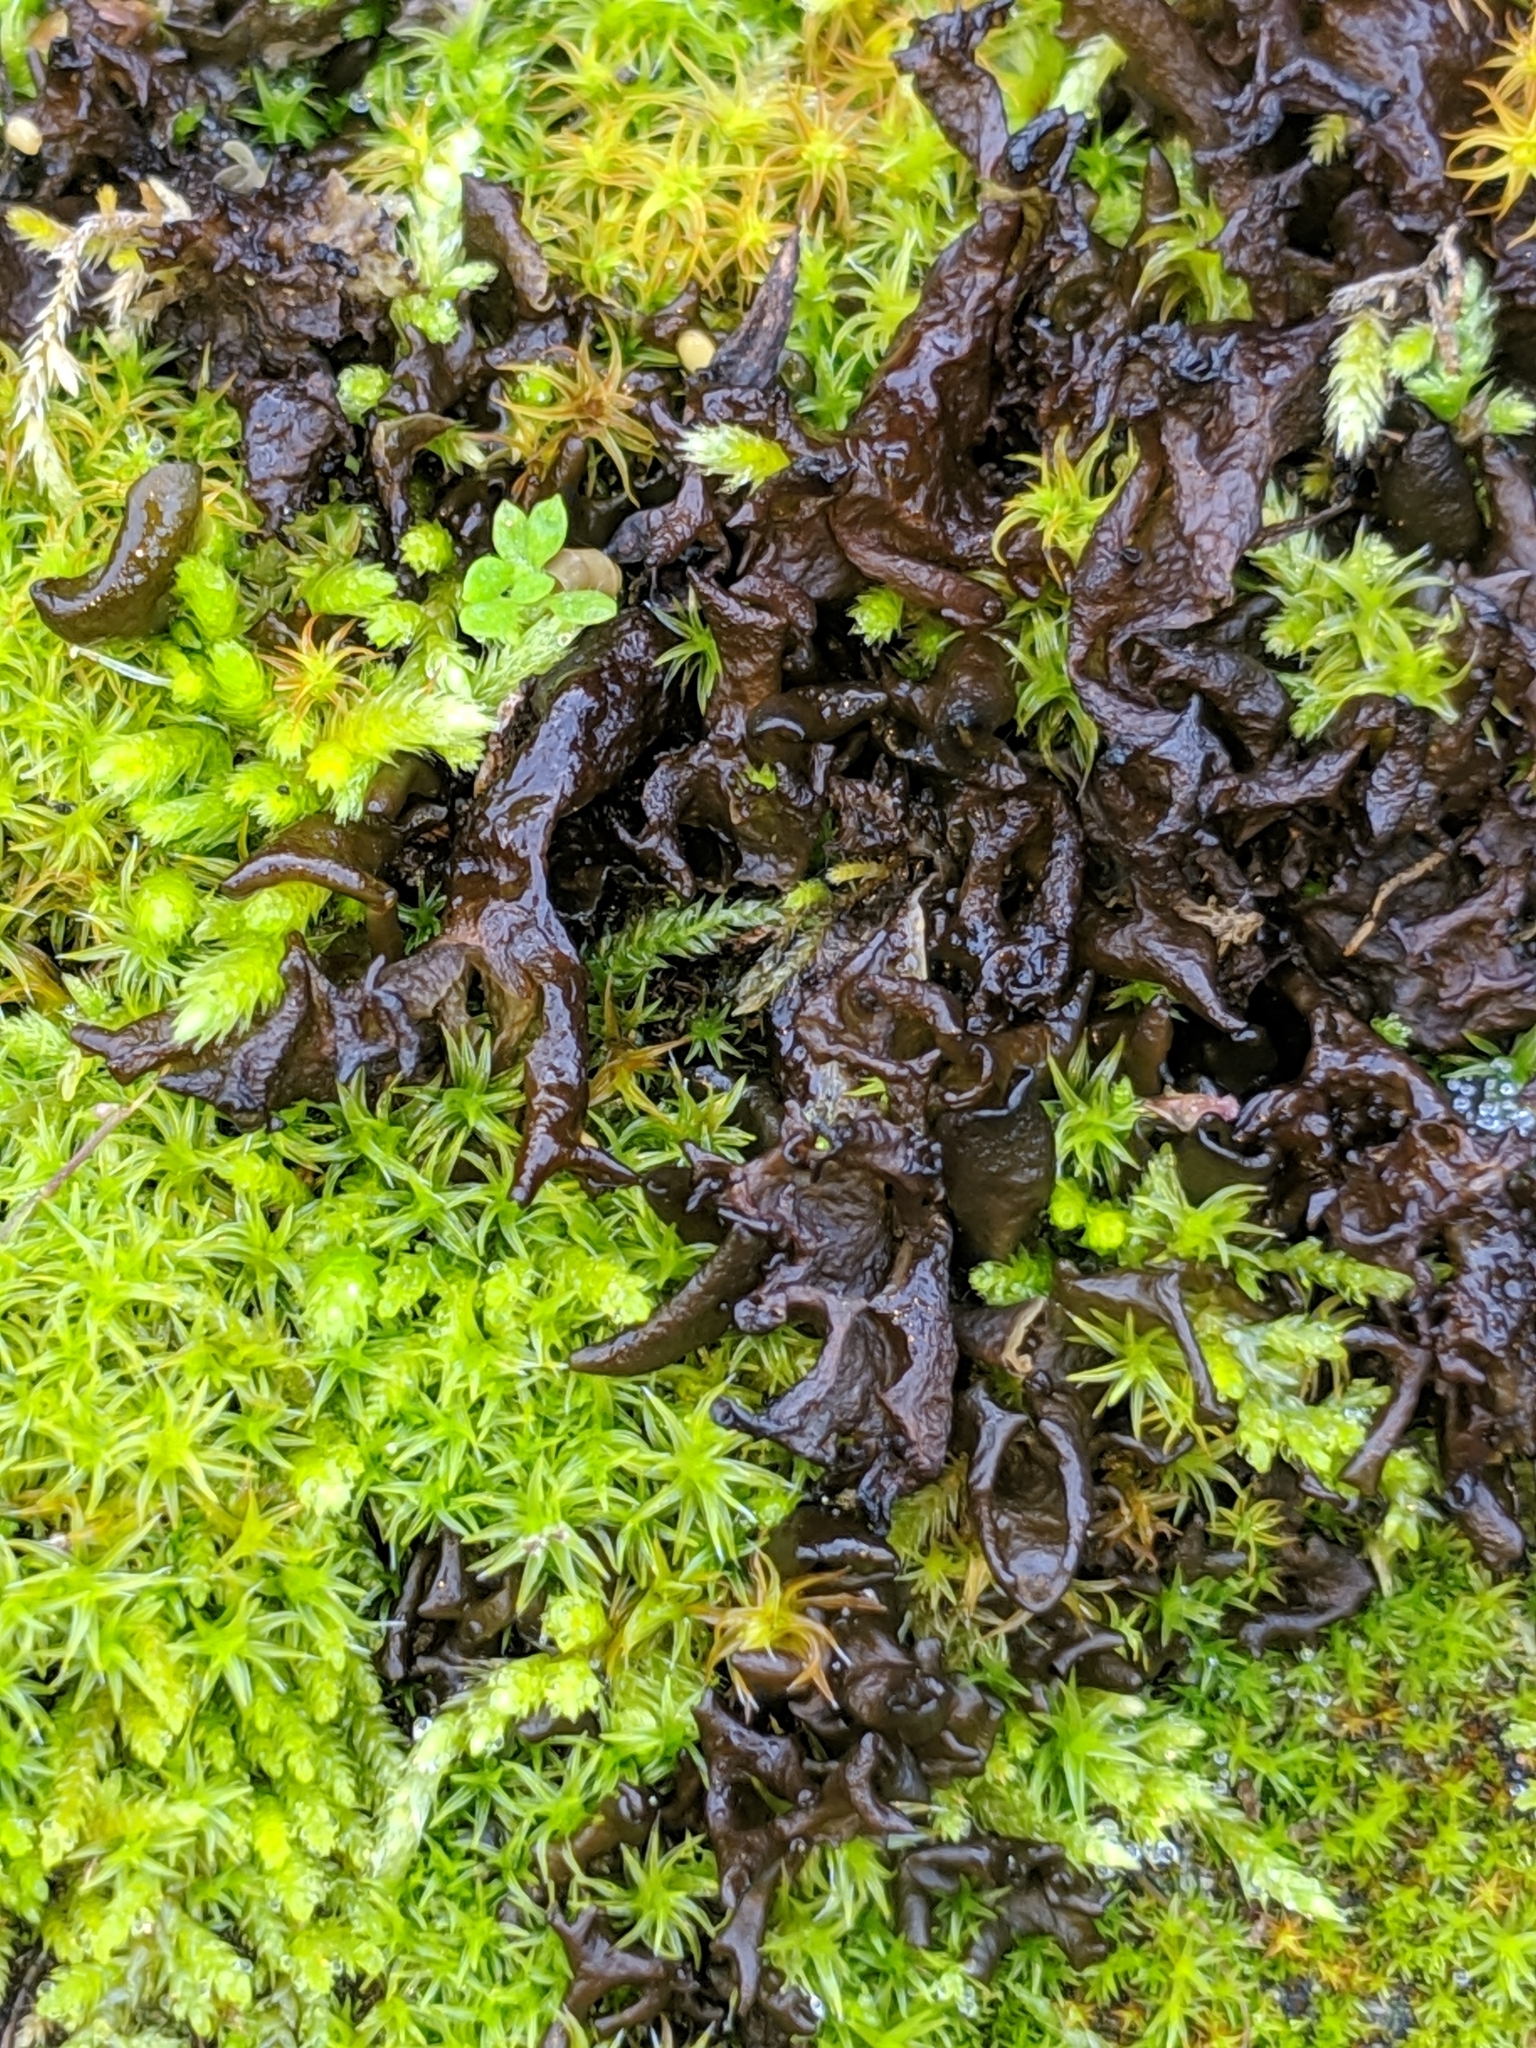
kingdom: Fungi
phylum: Ascomycota
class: Lecanoromycetes
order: Peltigerales
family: Collemataceae
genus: Scytinium
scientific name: Scytinium palmatum
